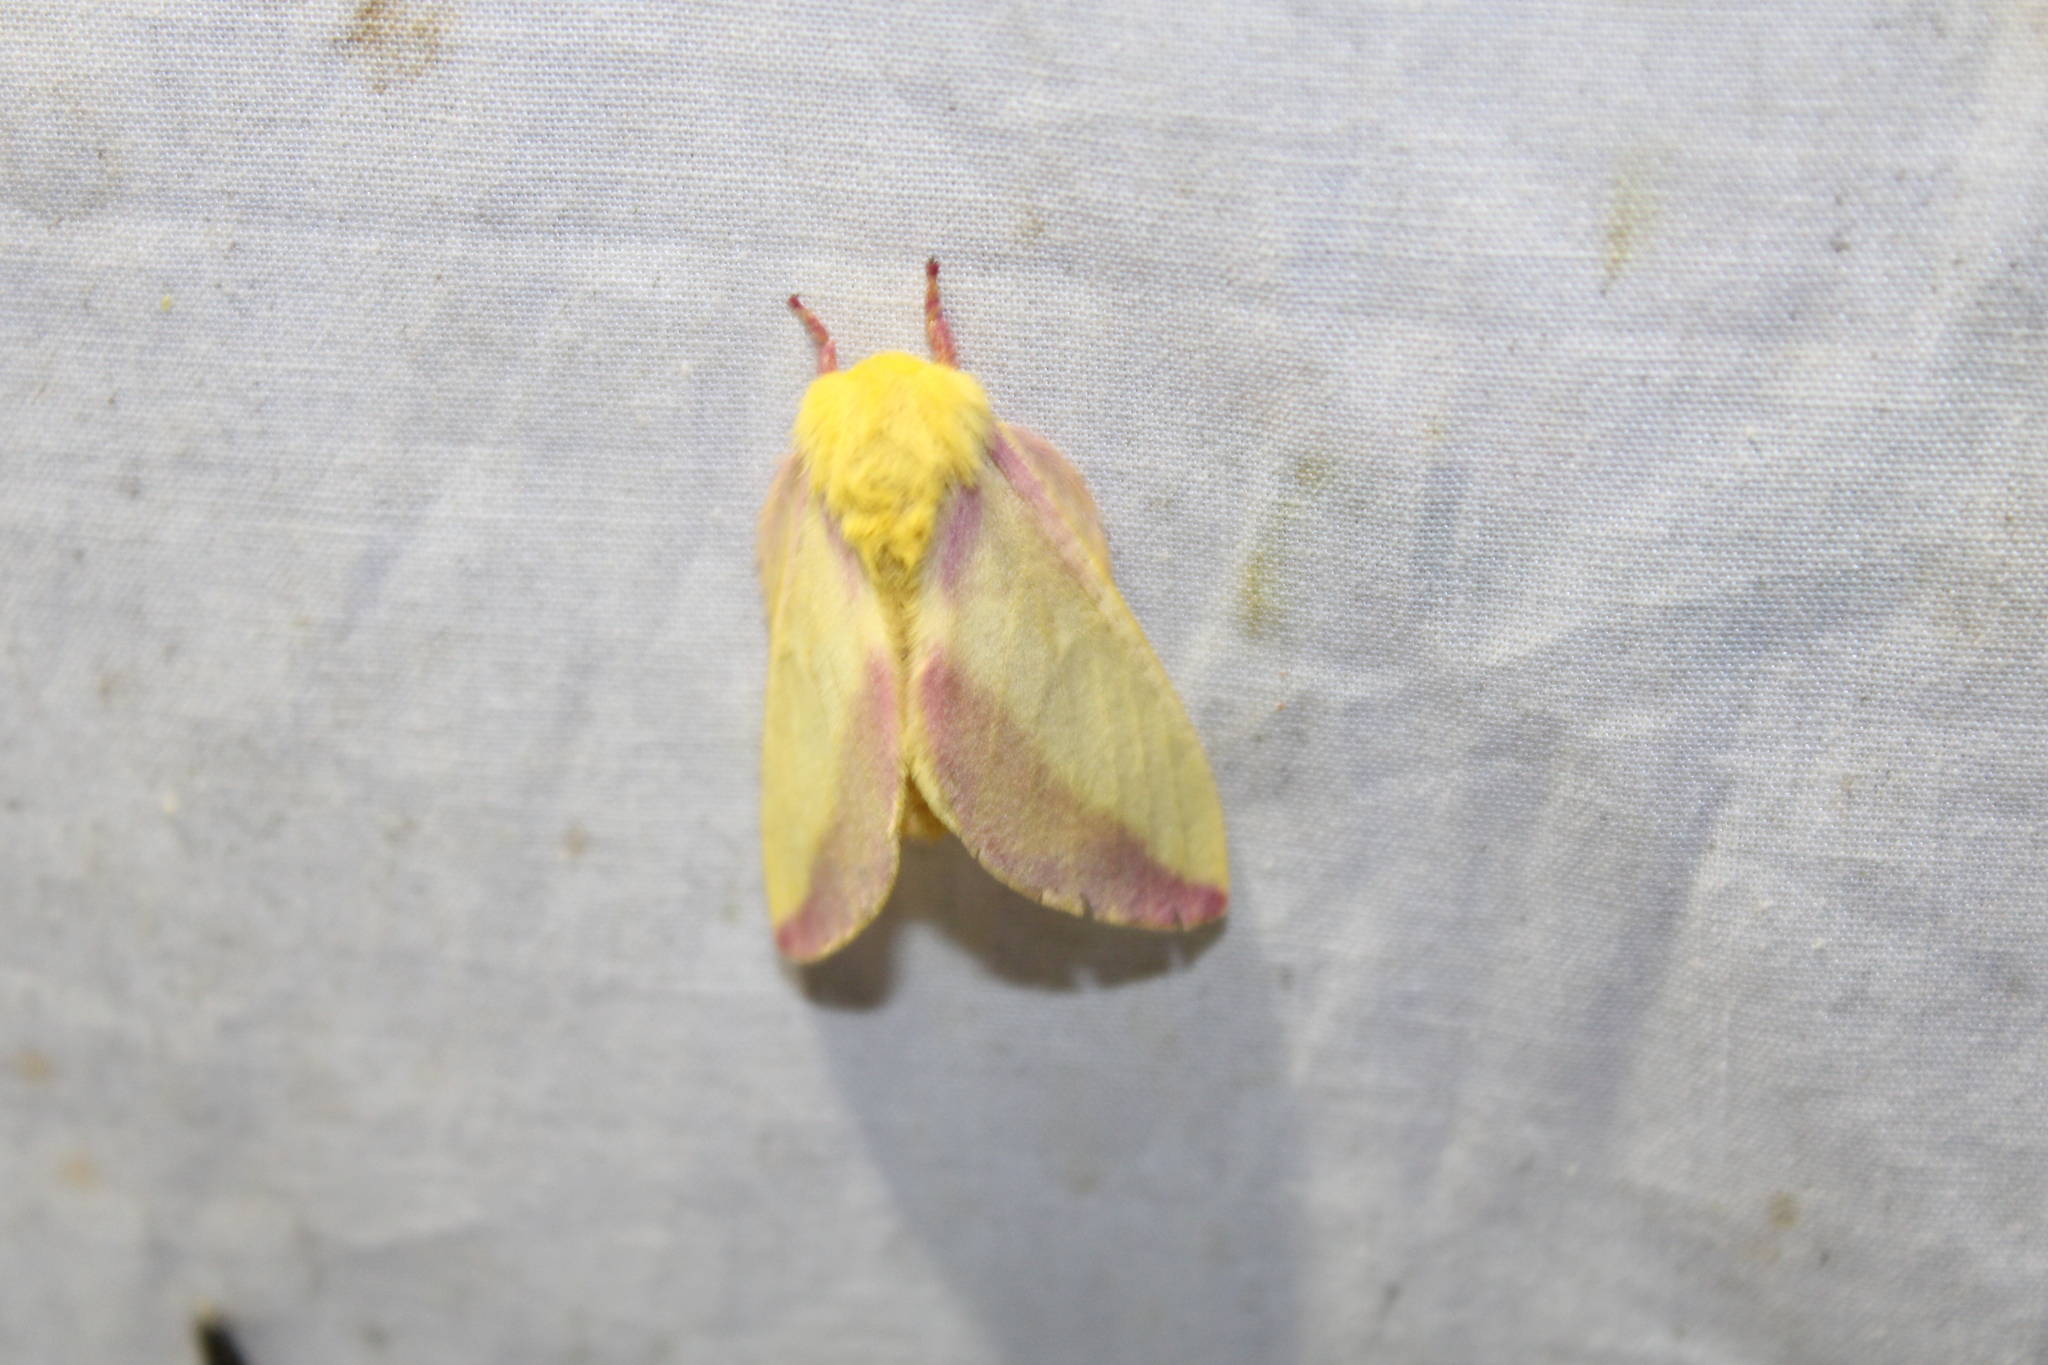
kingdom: Animalia
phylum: Arthropoda
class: Insecta
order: Lepidoptera
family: Saturniidae
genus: Dryocampa
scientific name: Dryocampa rubicunda
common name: Rosy maple moth
